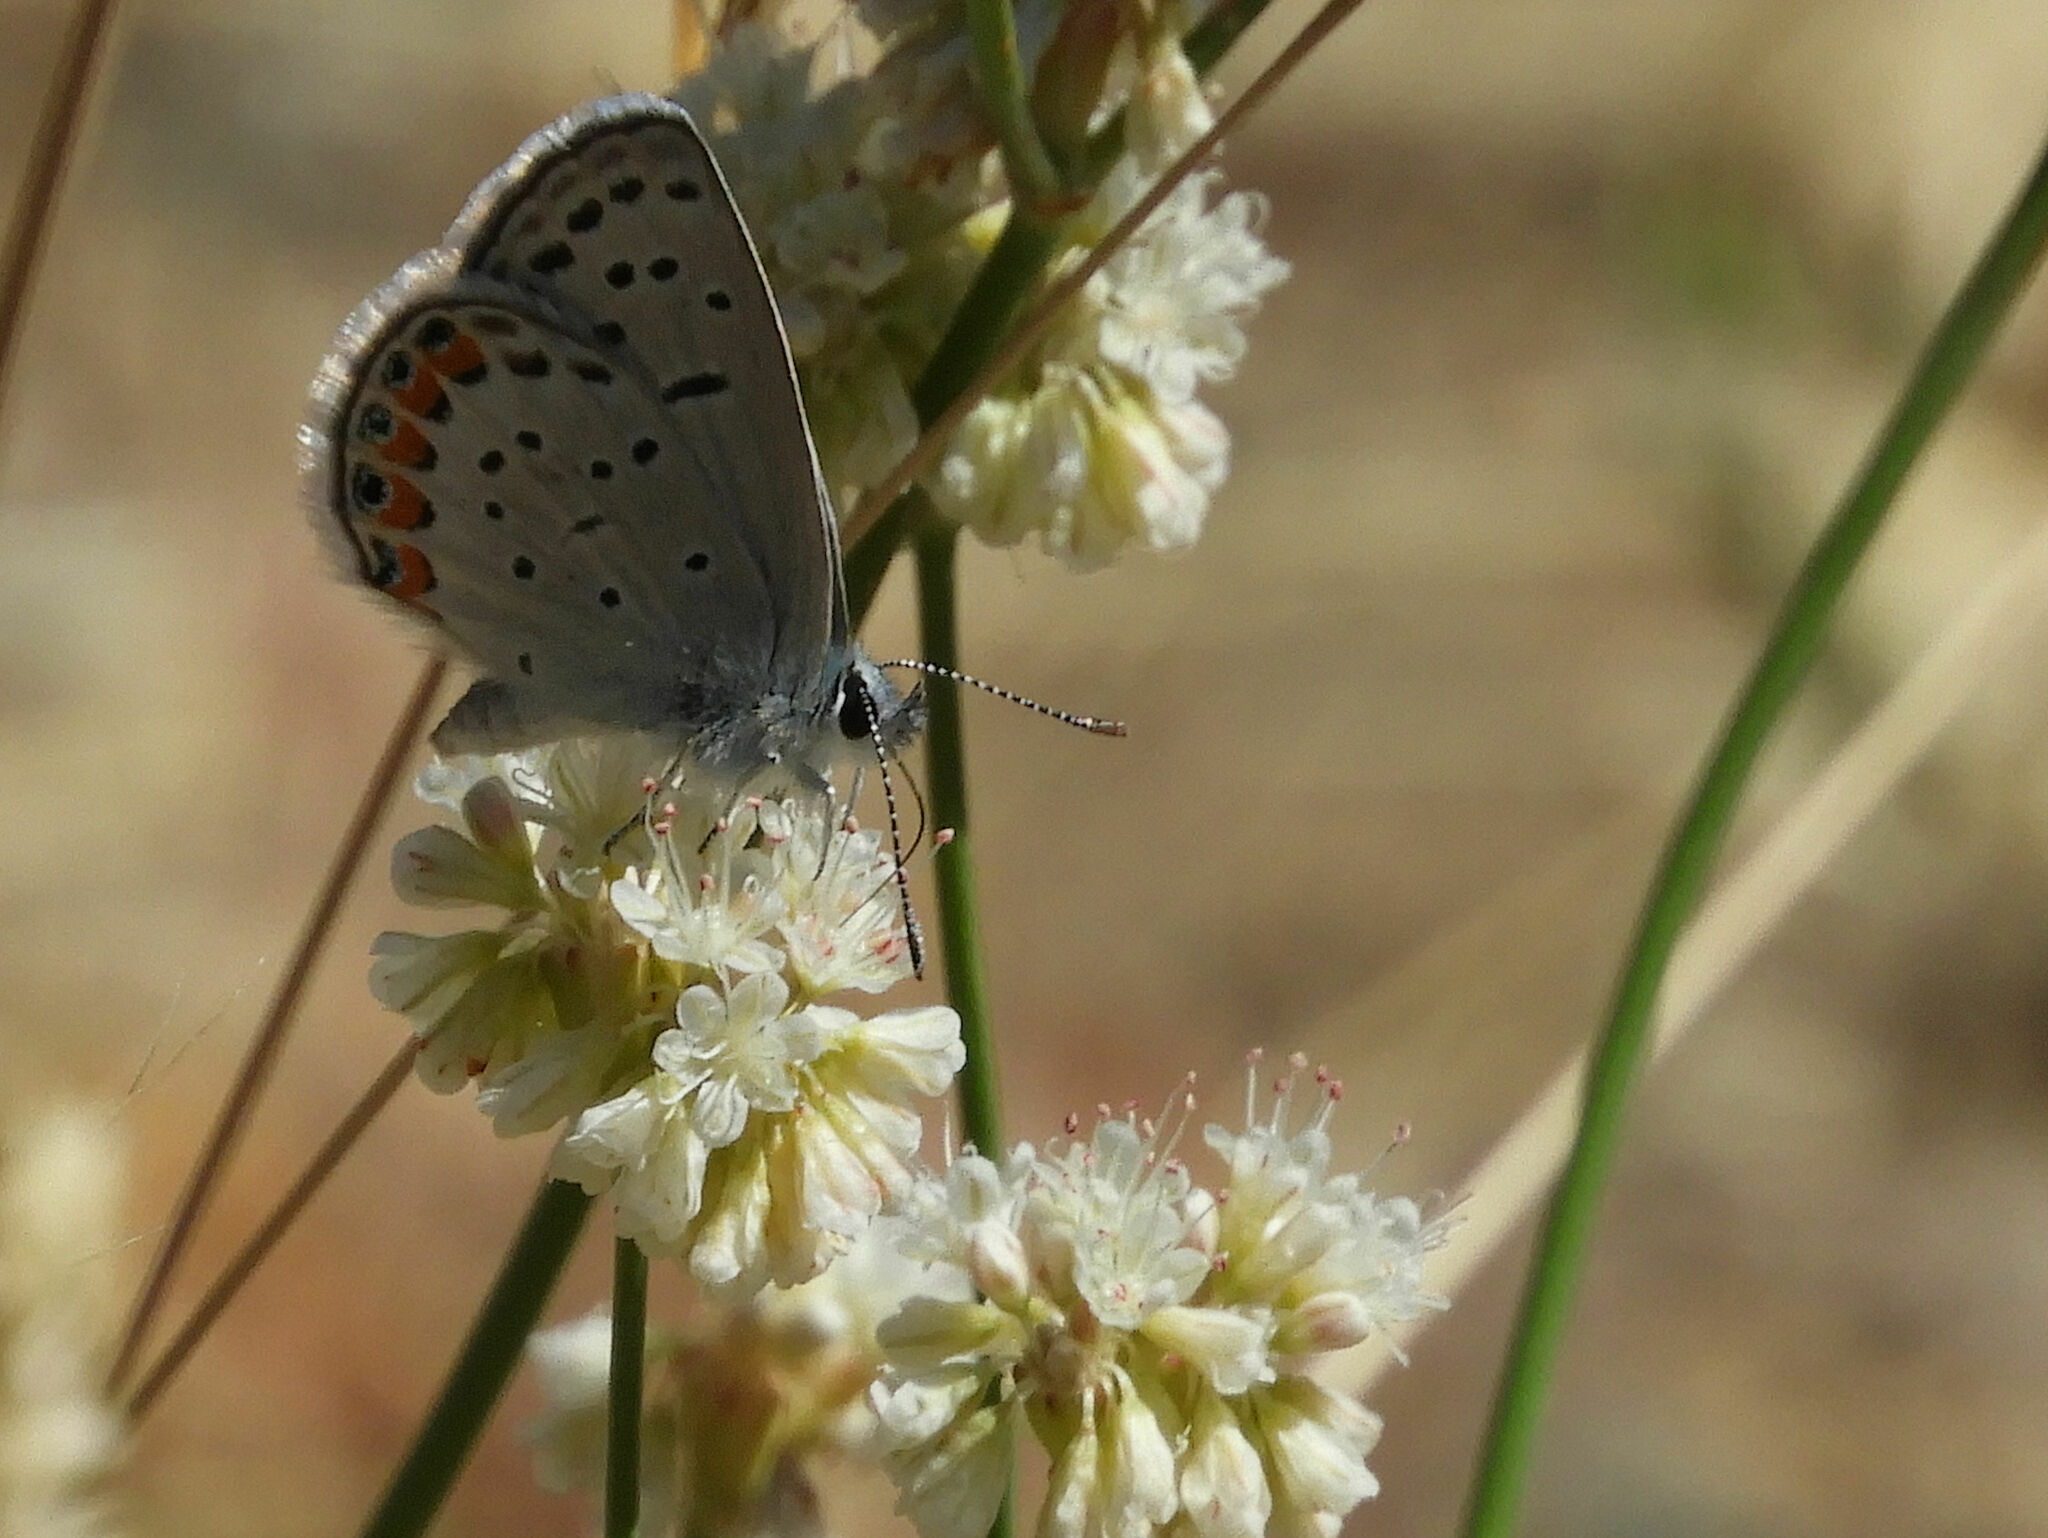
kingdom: Animalia
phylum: Arthropoda
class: Insecta
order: Lepidoptera
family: Lycaenidae
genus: Icaricia
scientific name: Icaricia acmon
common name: Acmon blue
